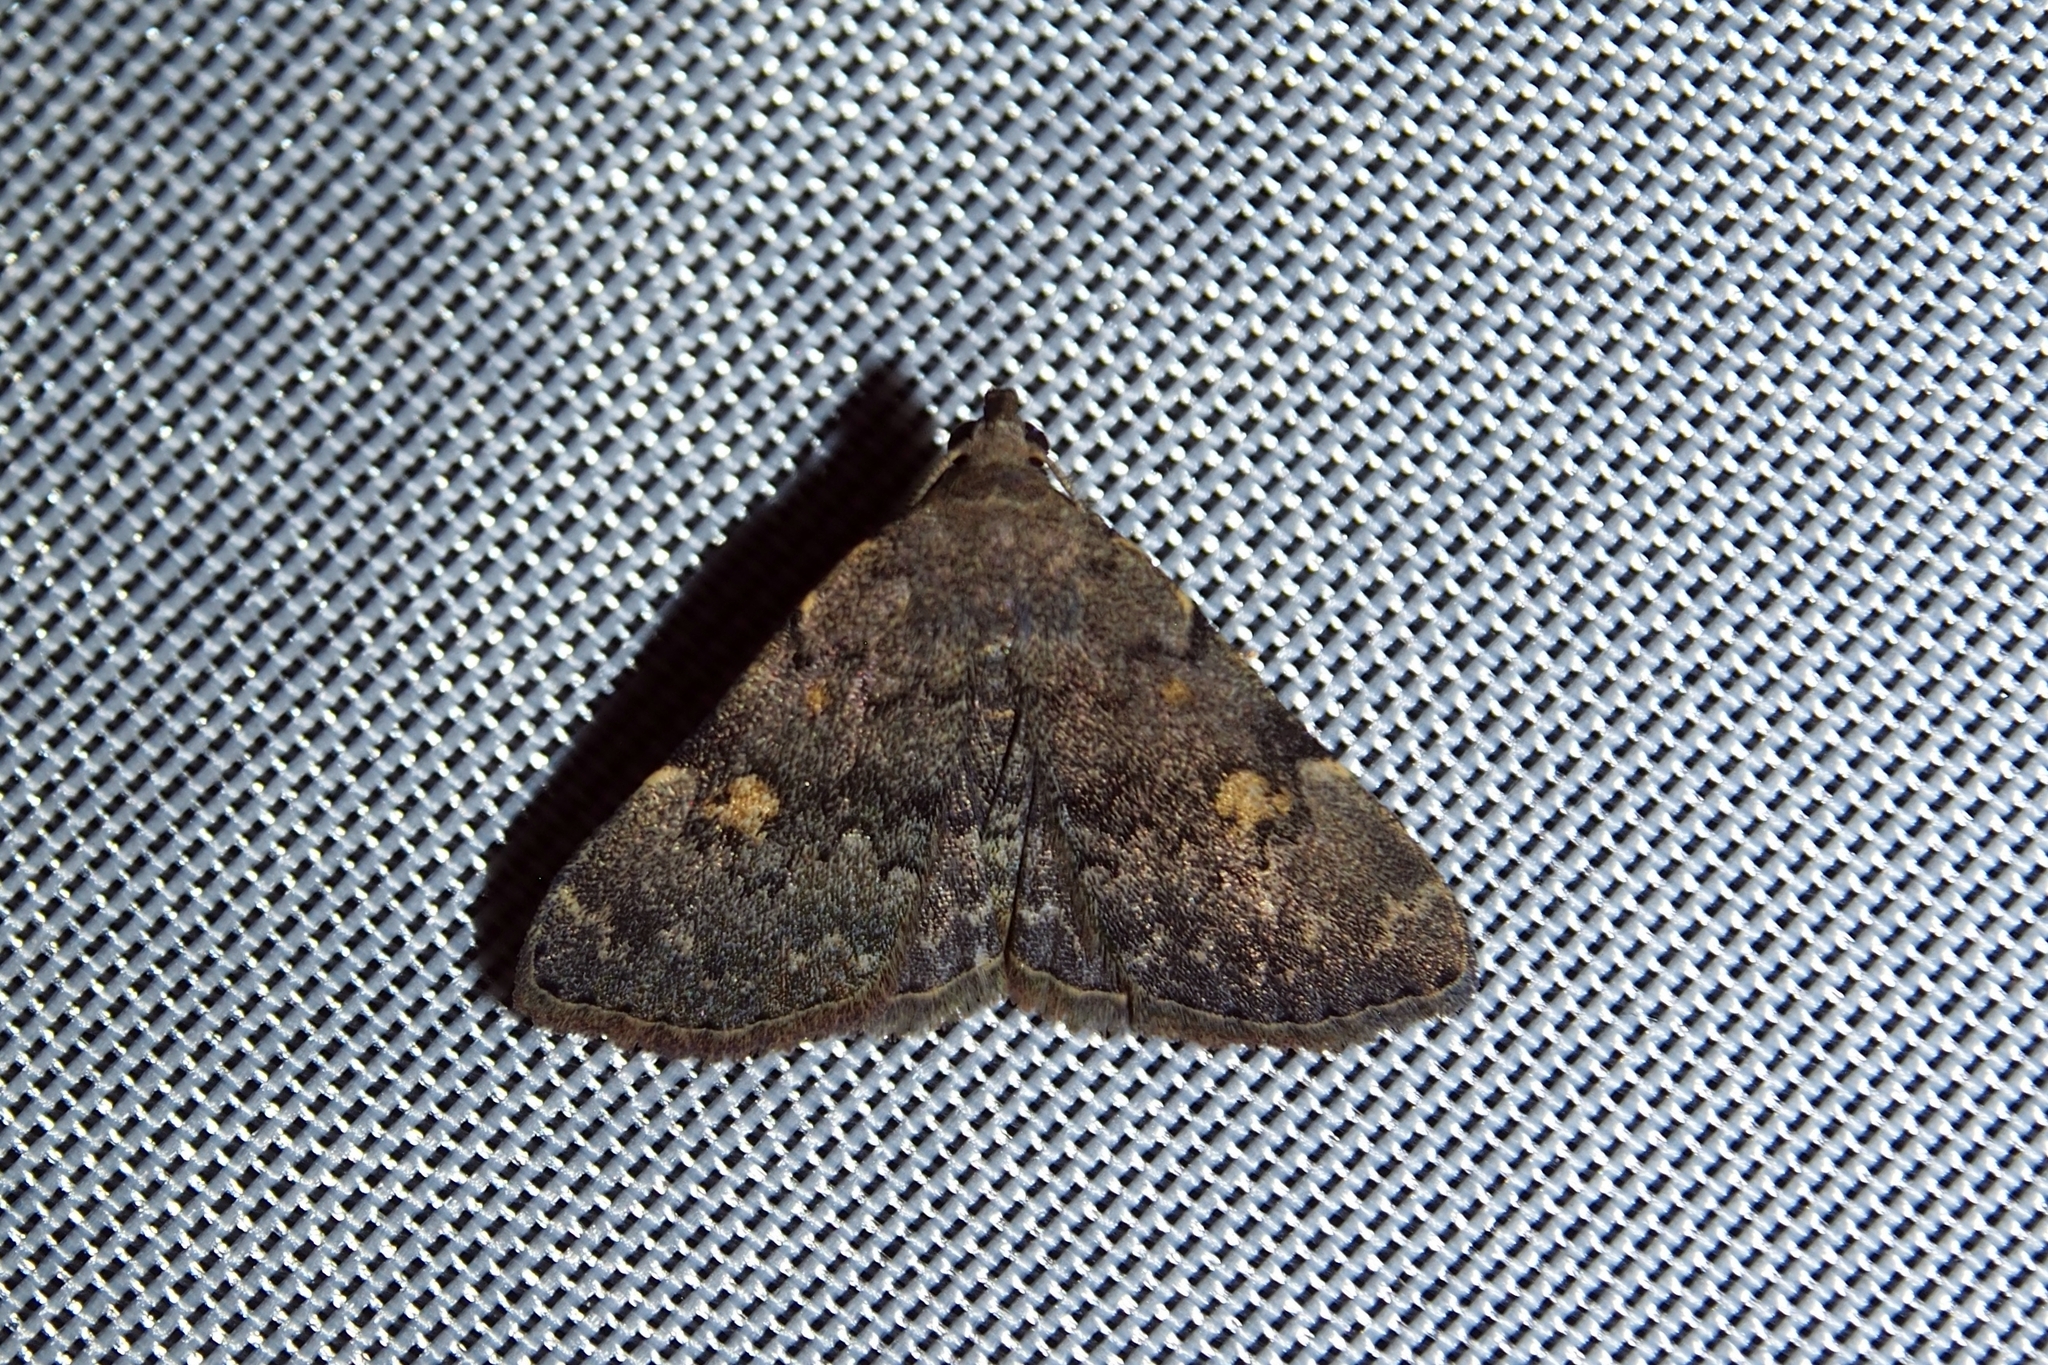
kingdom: Animalia
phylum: Arthropoda
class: Insecta
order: Lepidoptera
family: Erebidae
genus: Idia
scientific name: Idia aemula
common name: Common idia moth
